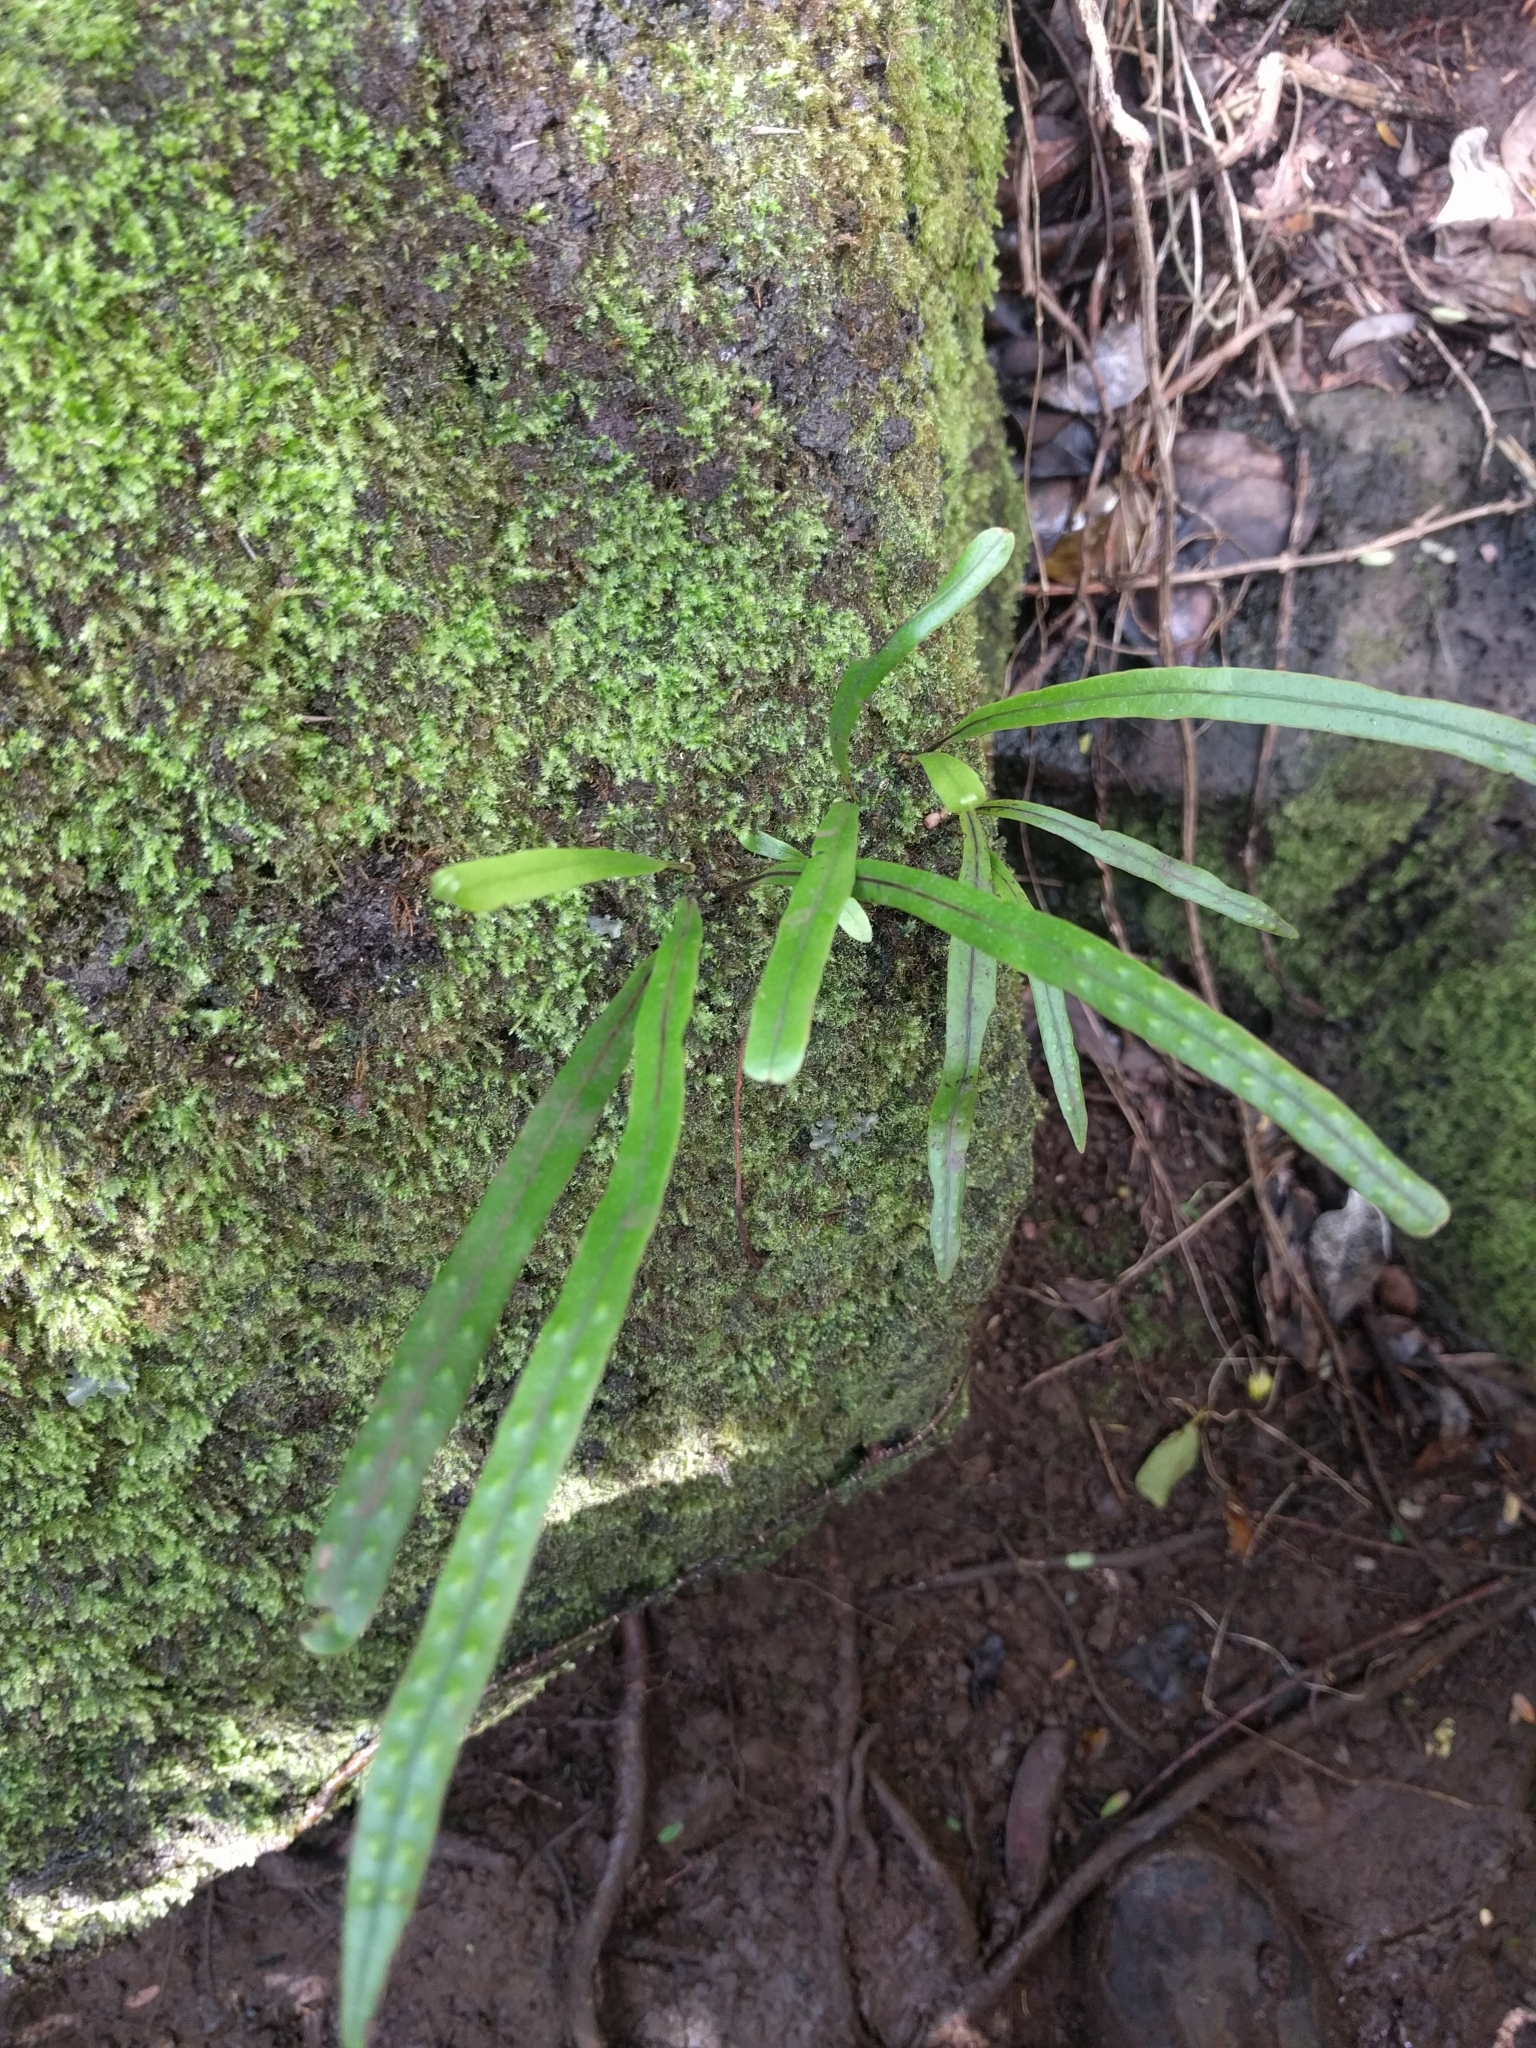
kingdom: Plantae
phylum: Tracheophyta
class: Polypodiopsida
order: Polypodiales
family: Polypodiaceae
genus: Lepisorus
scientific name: Lepisorus thunbergianus
